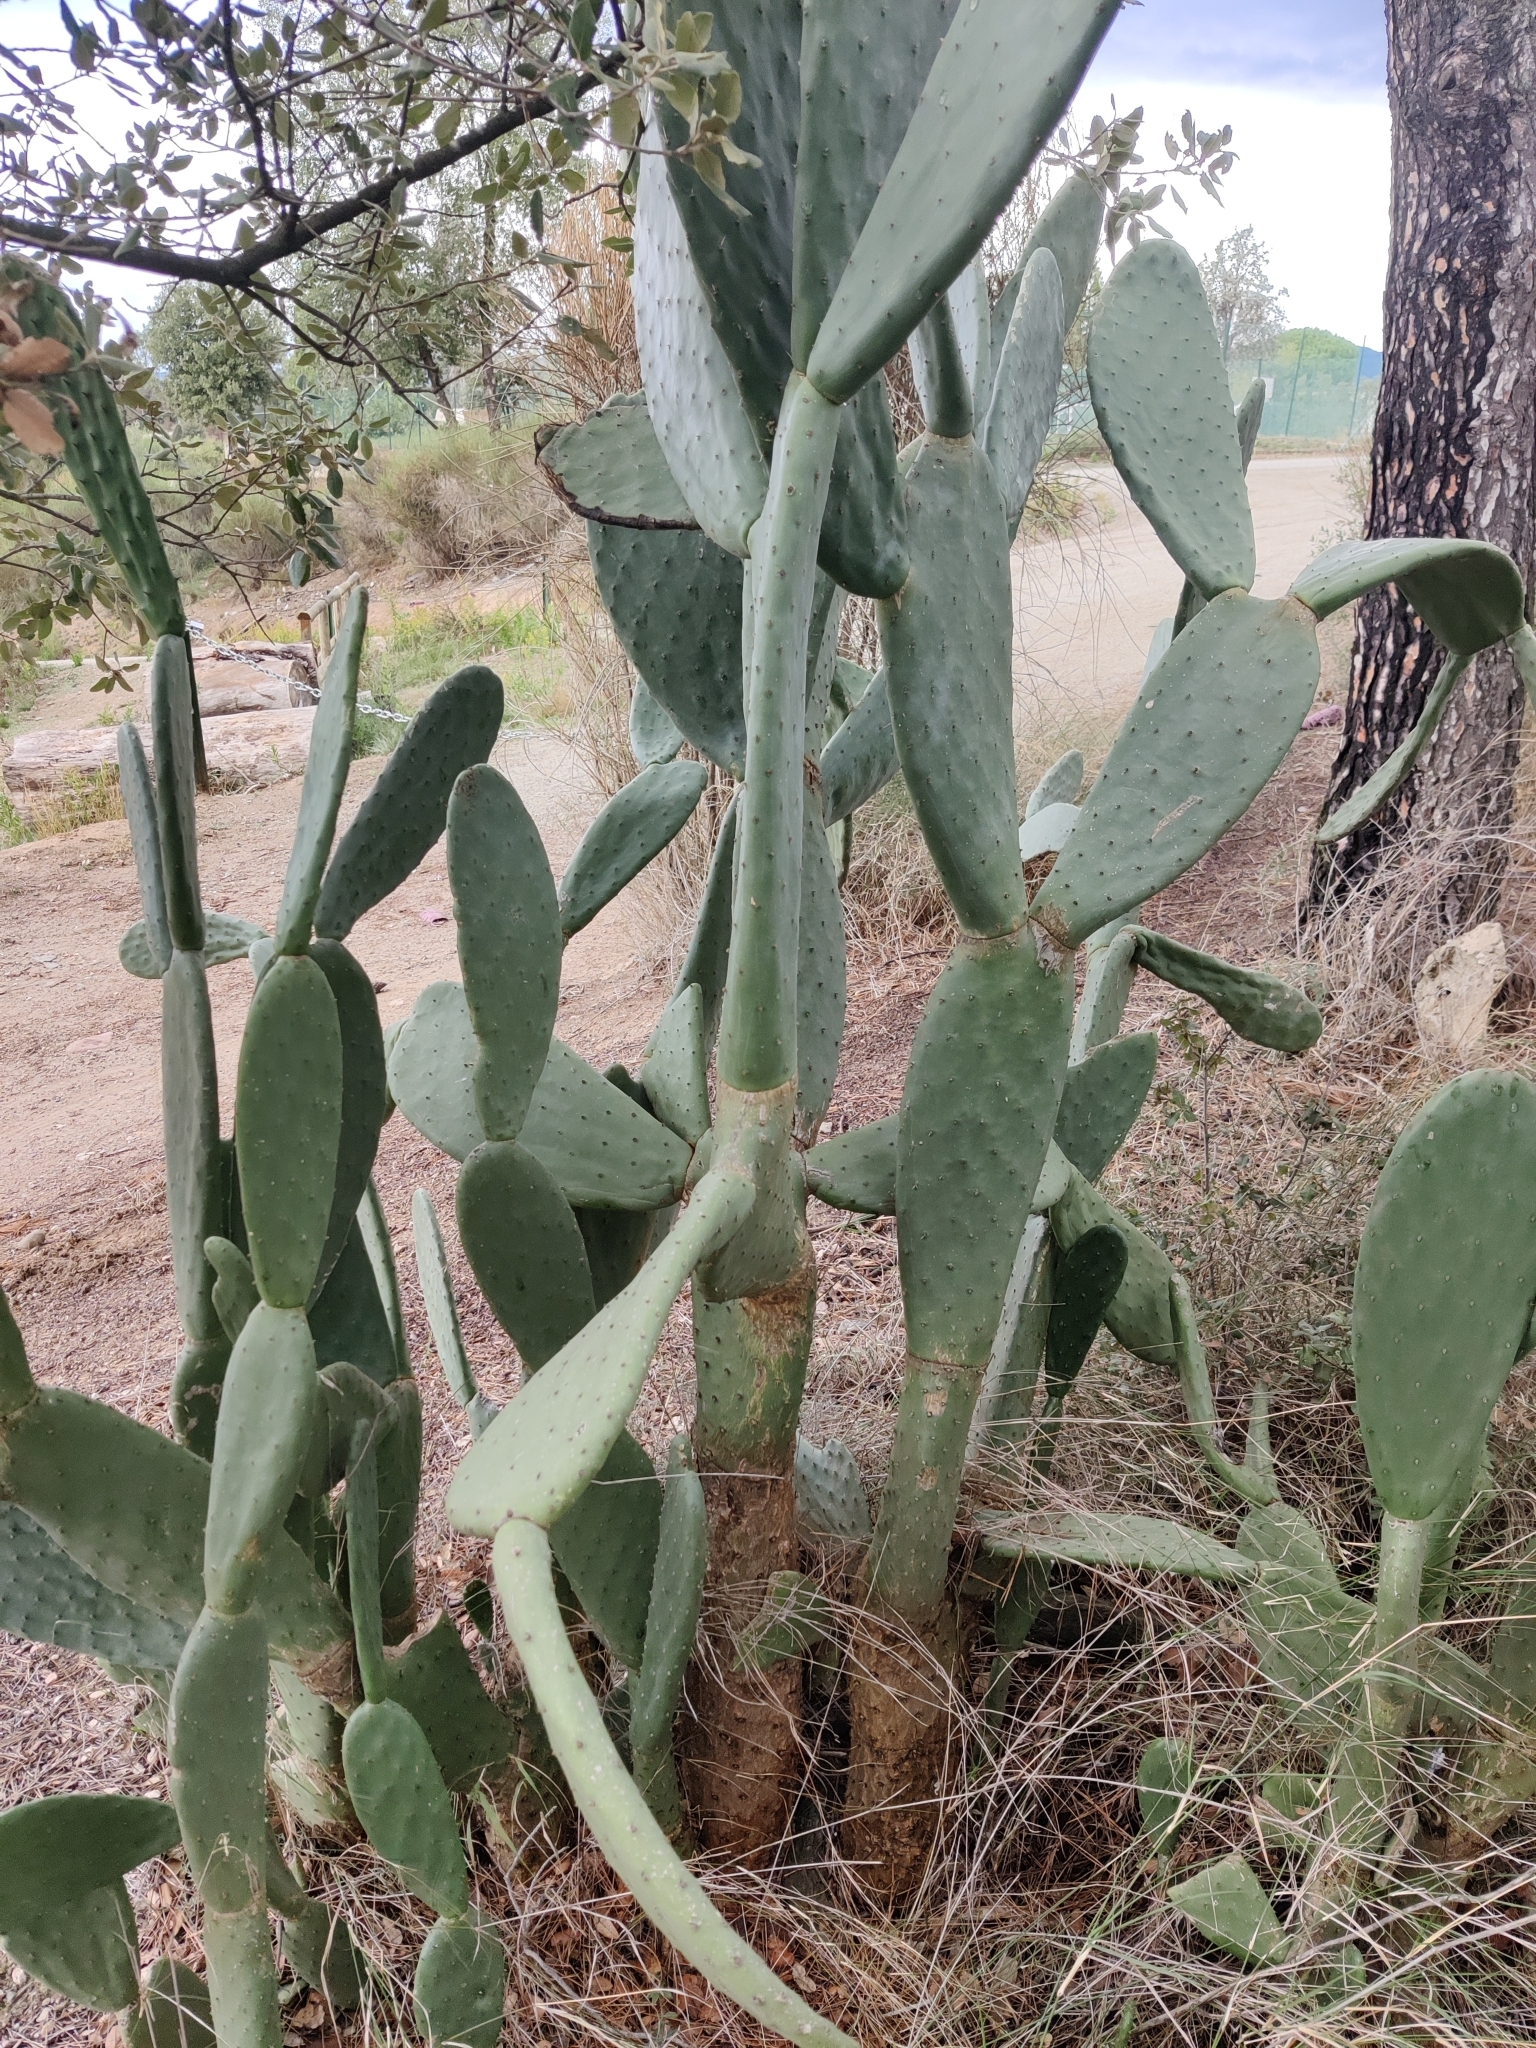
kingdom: Plantae
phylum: Tracheophyta
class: Magnoliopsida
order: Caryophyllales
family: Cactaceae
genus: Opuntia
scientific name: Opuntia ficus-indica
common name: Barbary fig
